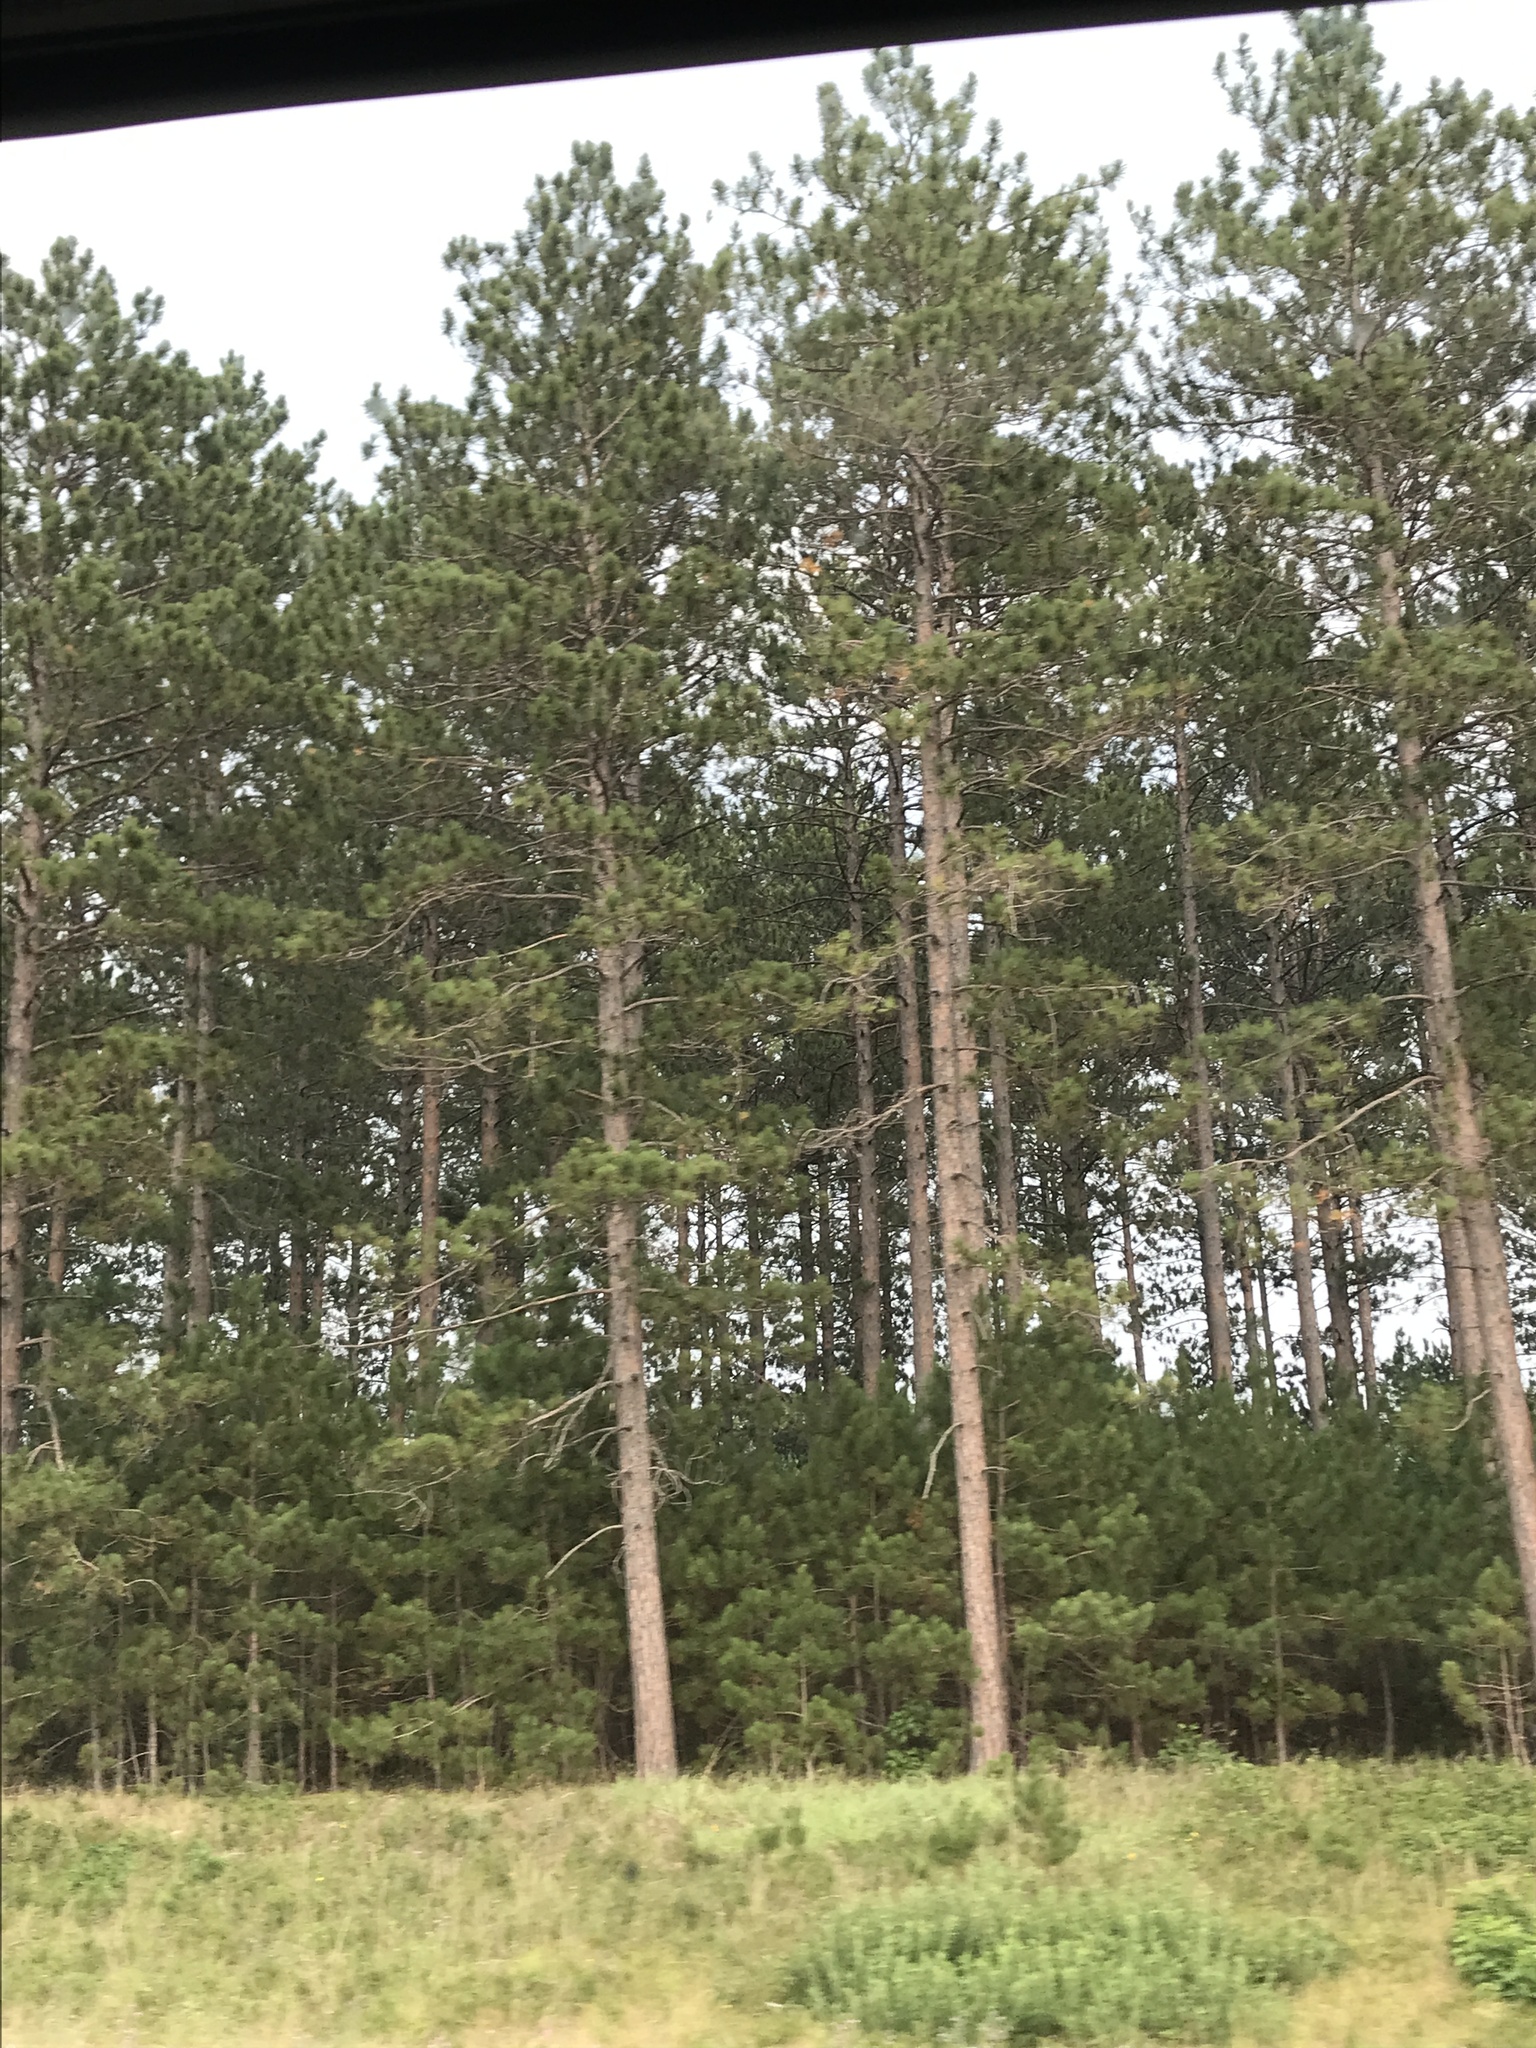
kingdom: Plantae
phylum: Tracheophyta
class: Pinopsida
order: Pinales
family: Pinaceae
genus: Pinus
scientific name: Pinus resinosa
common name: Norway pine
